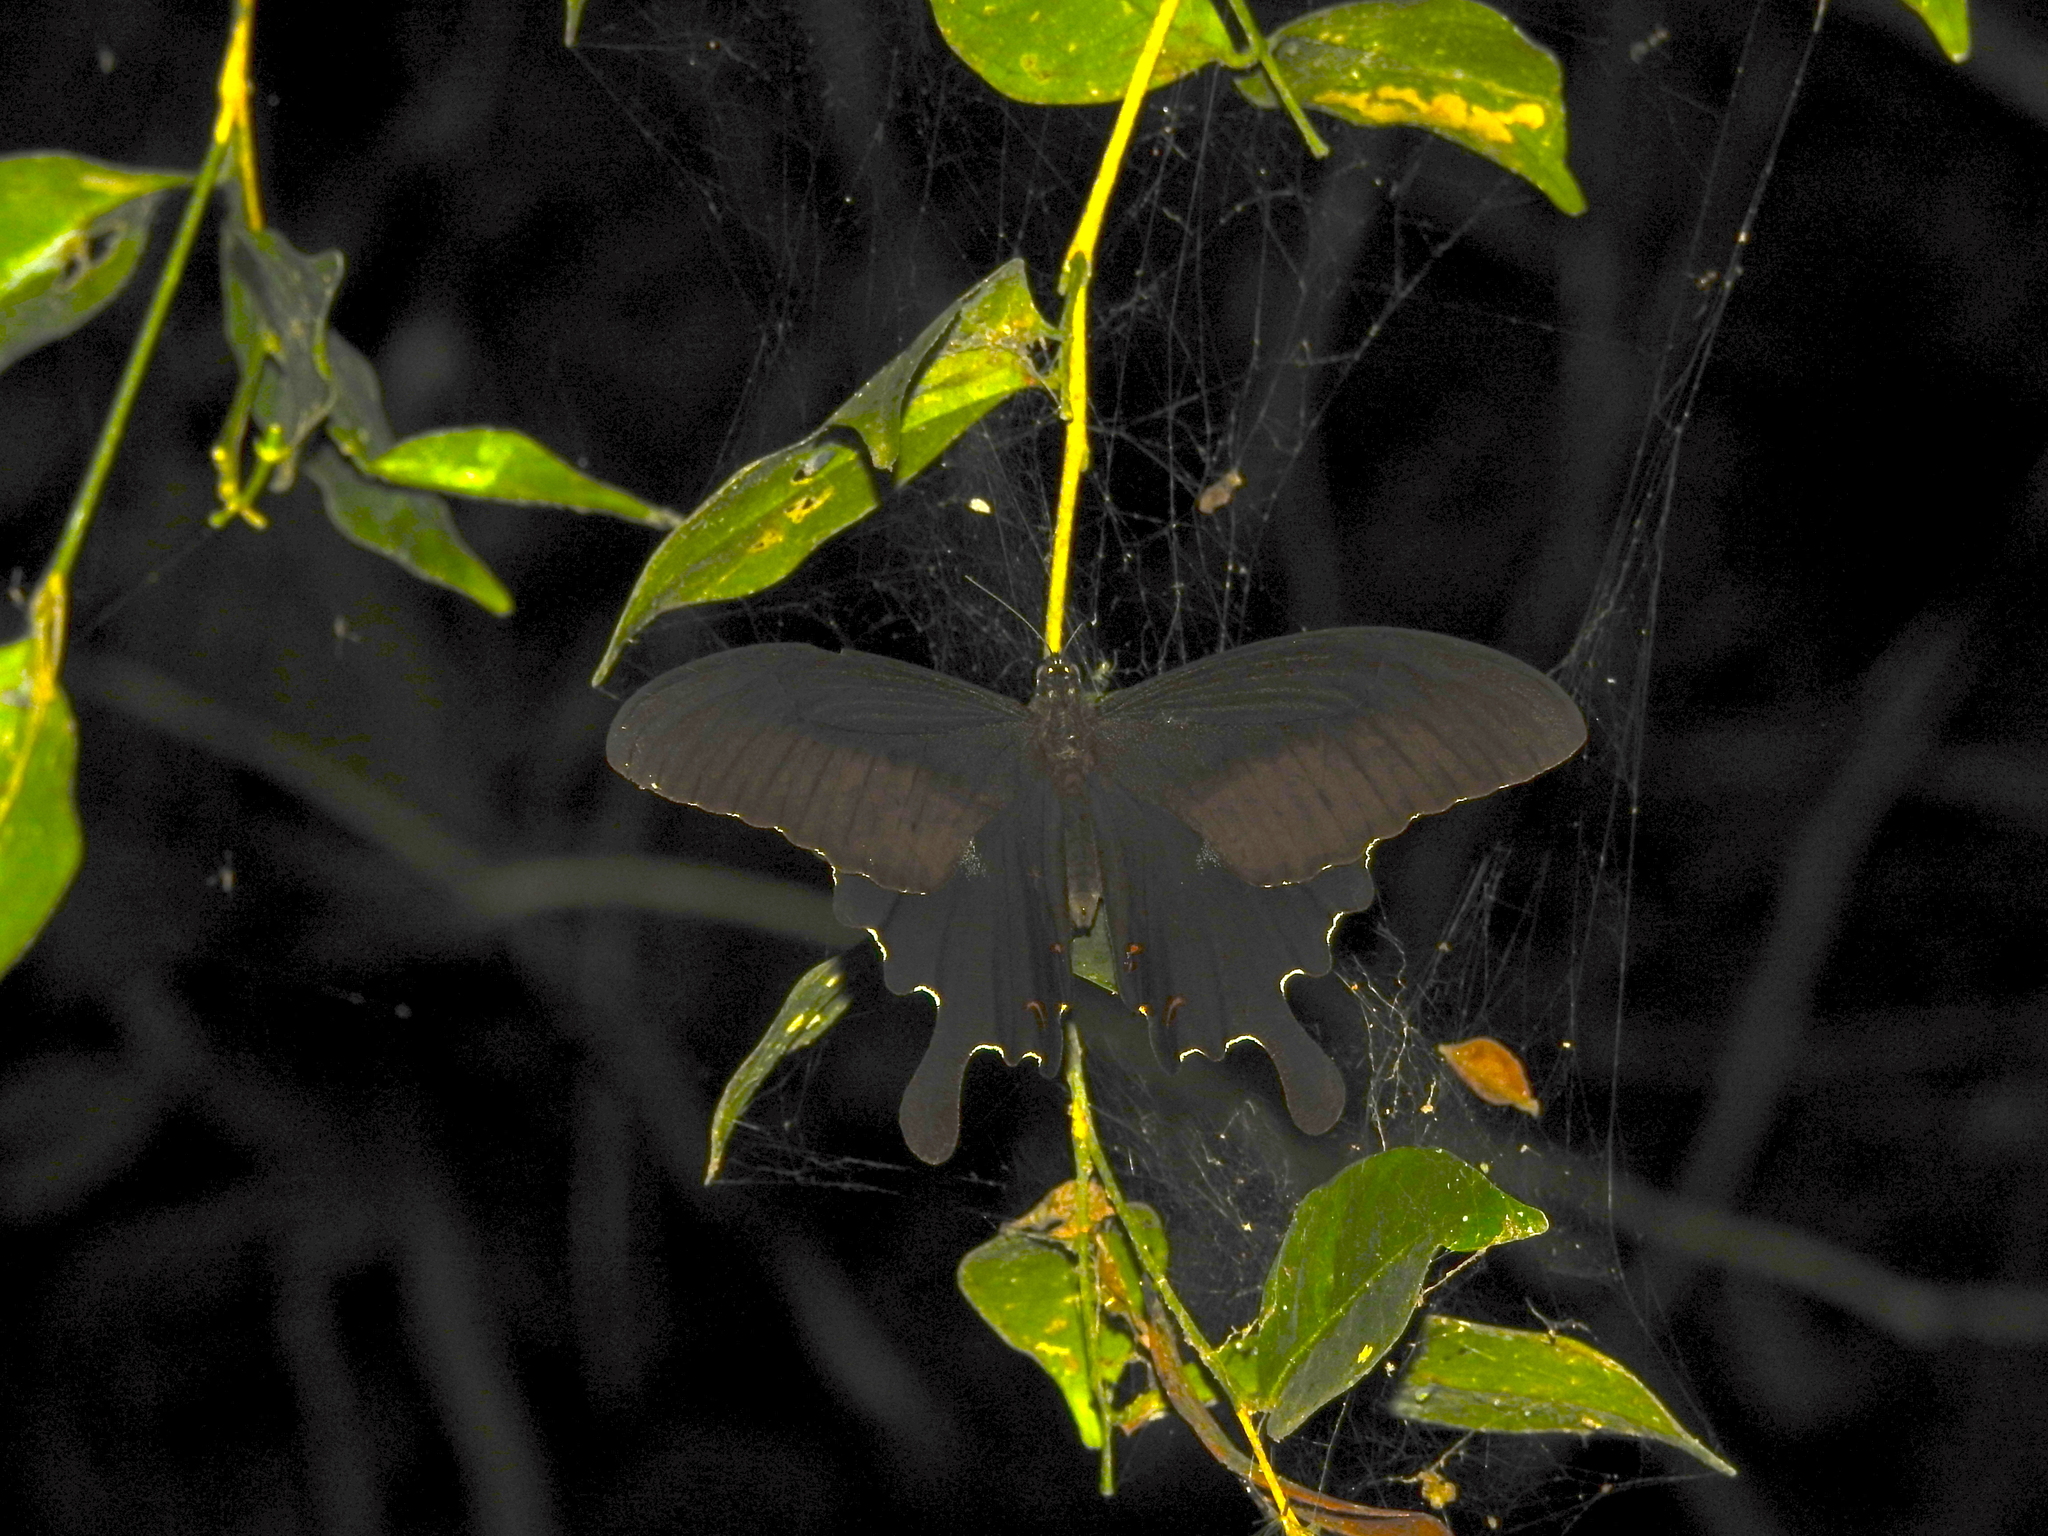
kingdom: Animalia
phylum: Arthropoda
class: Insecta
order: Lepidoptera
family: Papilionidae
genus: Papilio
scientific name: Papilio helenus
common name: Red helen
